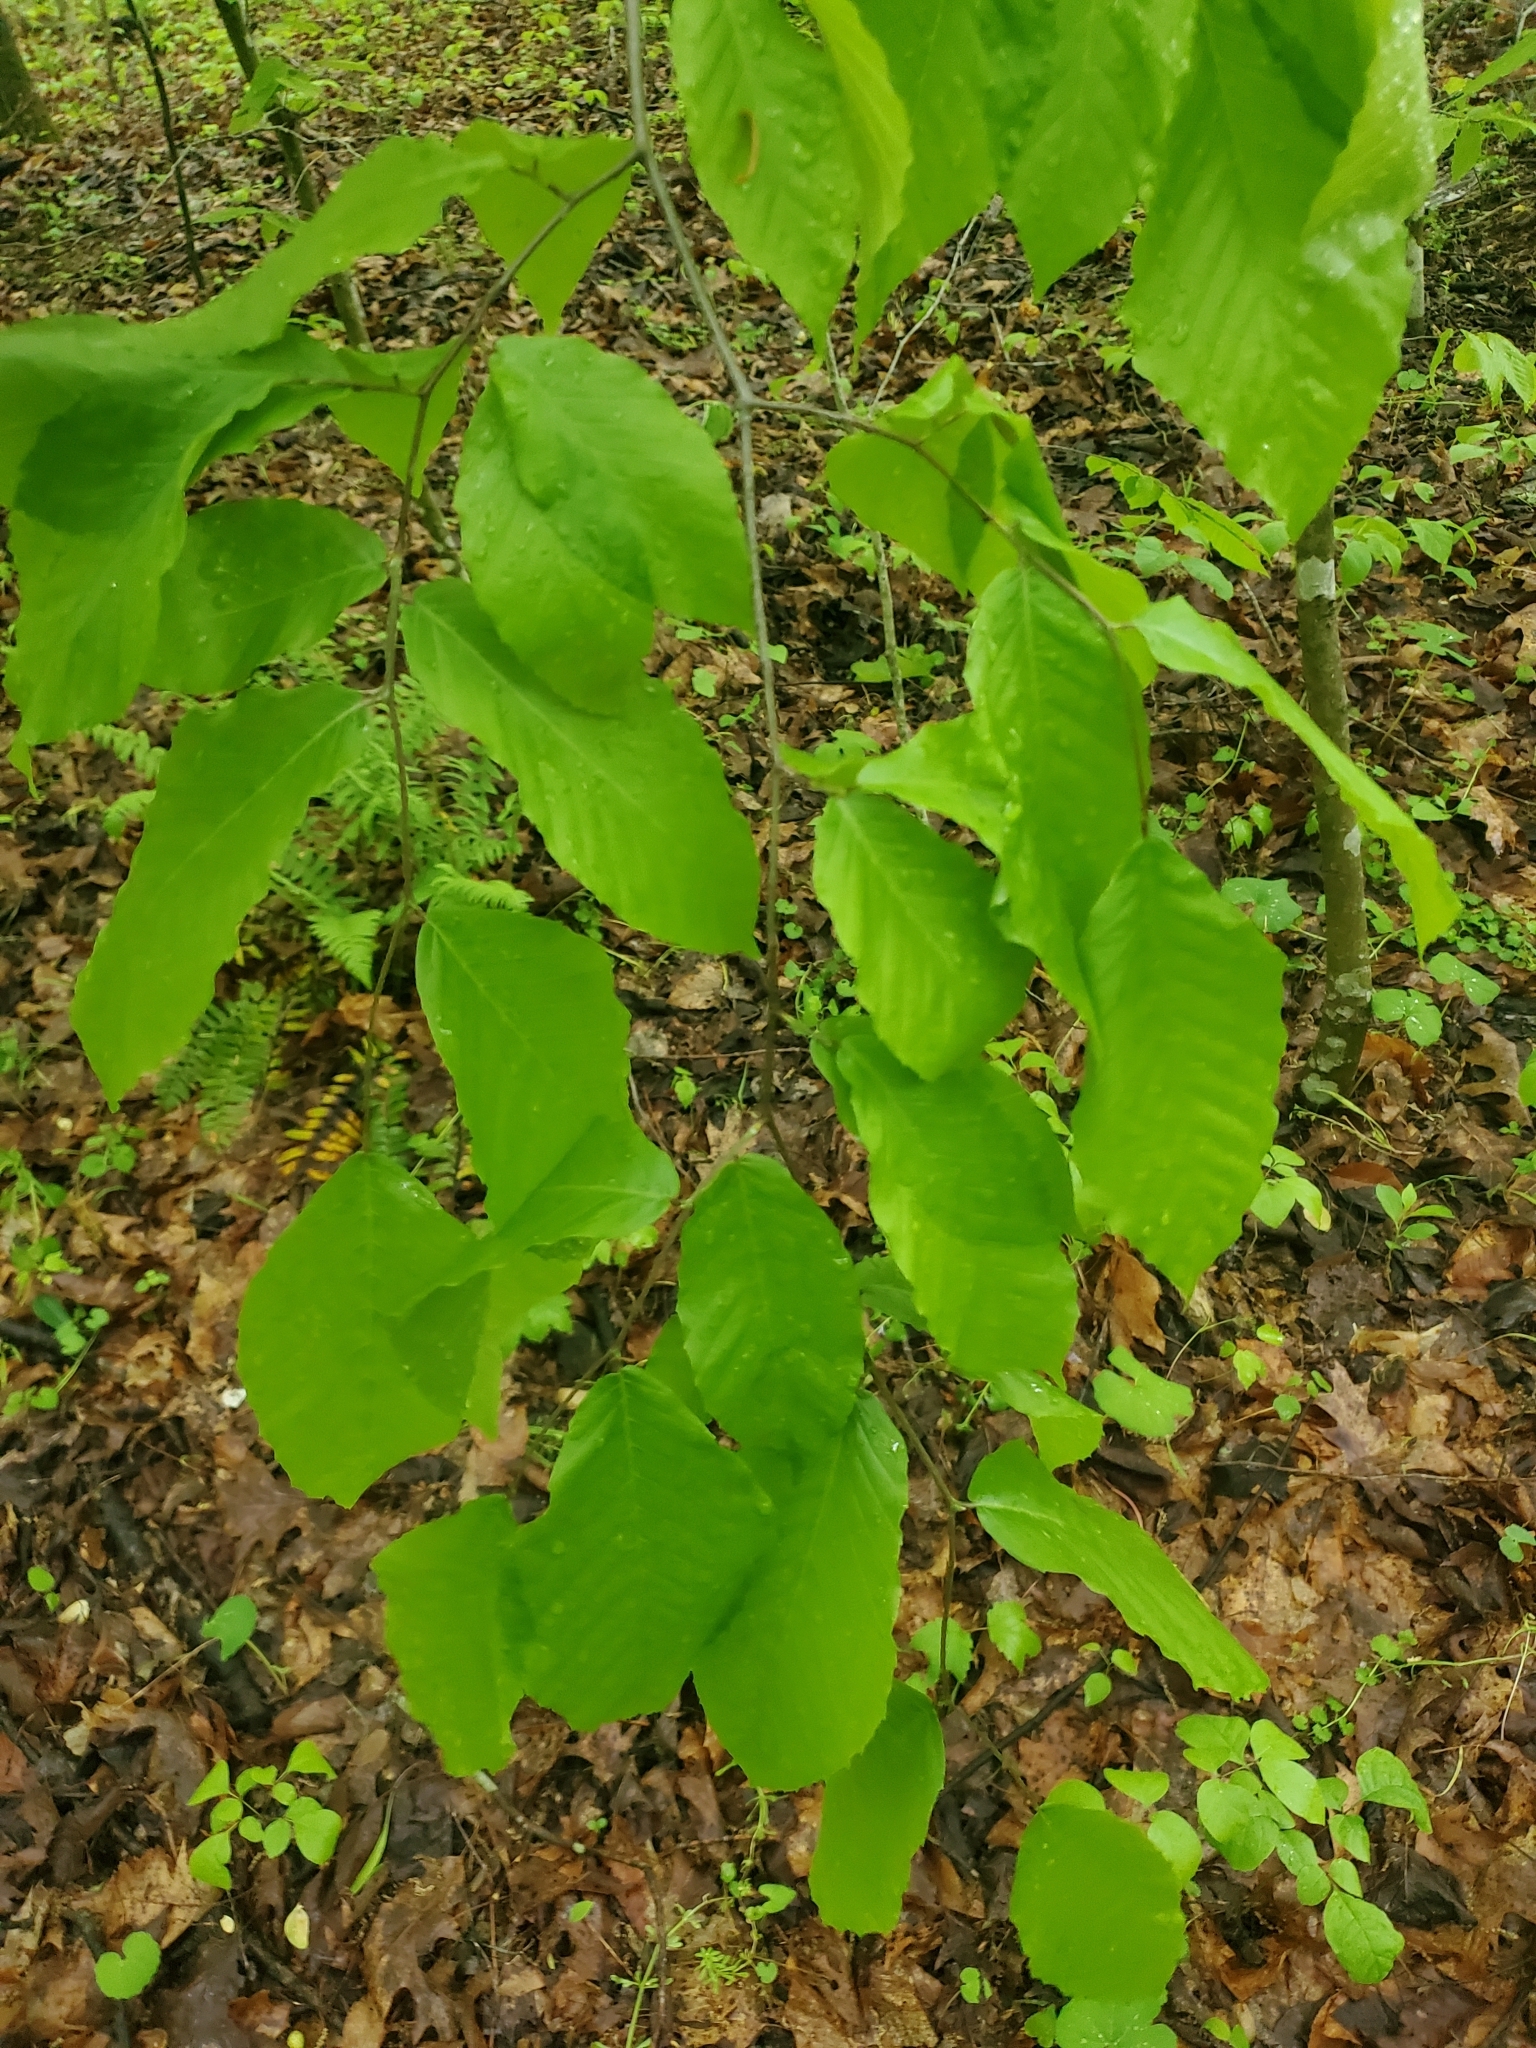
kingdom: Plantae
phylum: Tracheophyta
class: Magnoliopsida
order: Fagales
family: Fagaceae
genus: Fagus
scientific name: Fagus grandifolia
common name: American beech
